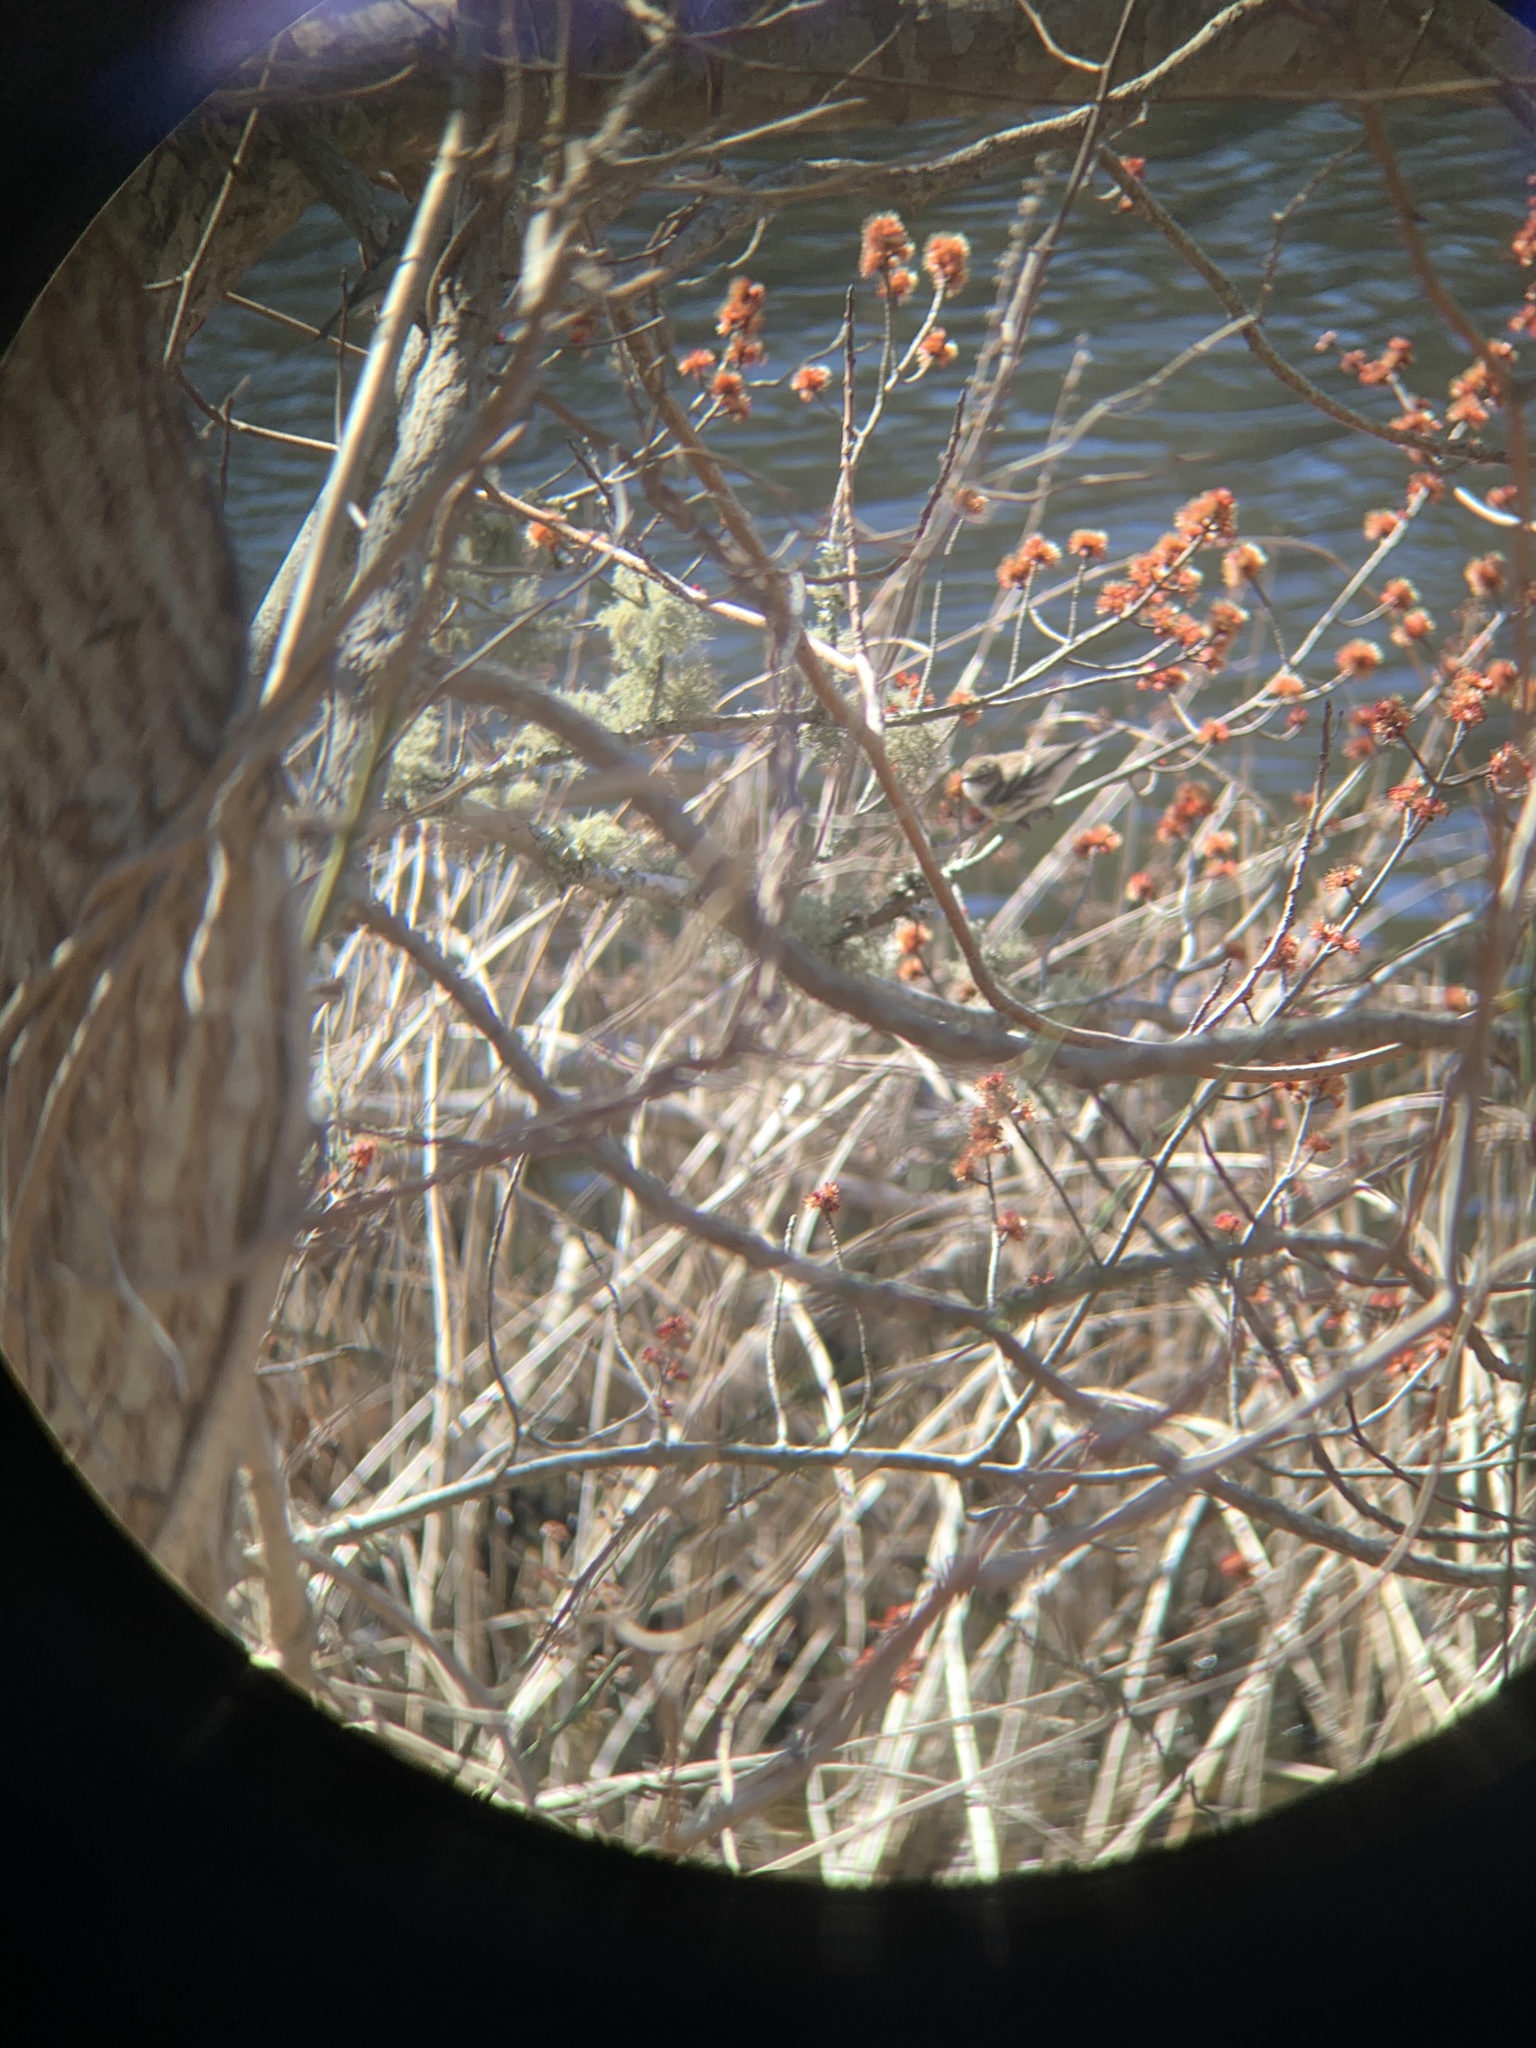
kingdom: Animalia
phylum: Chordata
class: Aves
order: Passeriformes
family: Parulidae
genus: Setophaga
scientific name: Setophaga coronata
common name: Myrtle warbler
